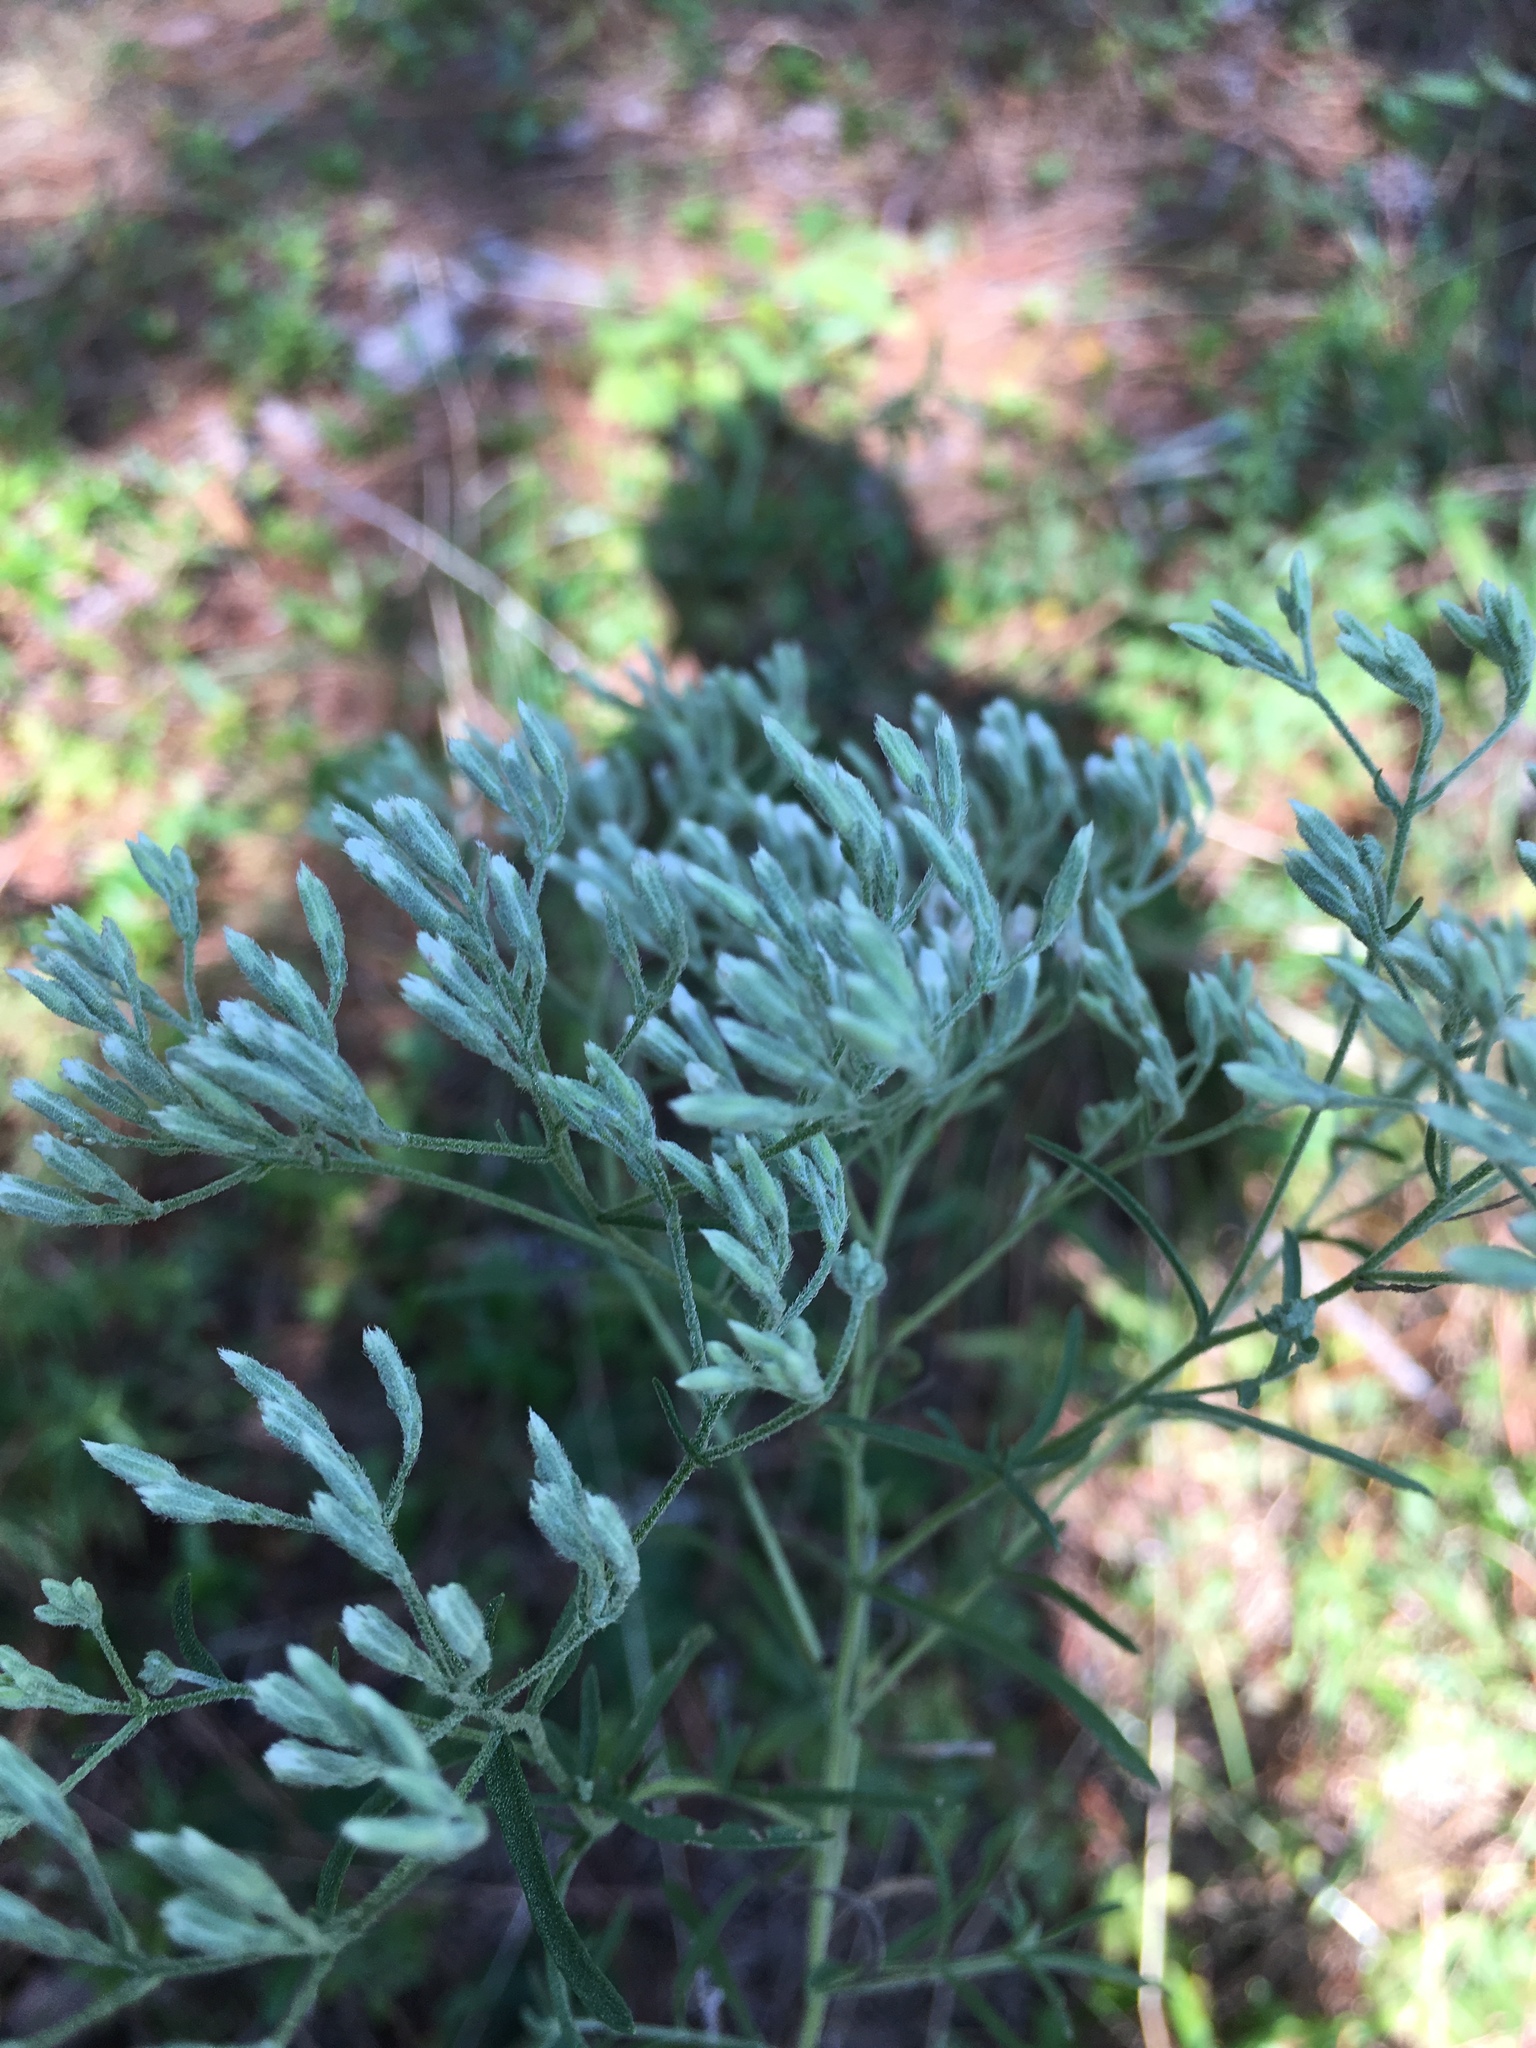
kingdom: Plantae
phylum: Tracheophyta
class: Magnoliopsida
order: Asterales
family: Asteraceae
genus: Eupatorium
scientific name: Eupatorium hyssopifolium
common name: Hyssop-leaf thoroughwort
